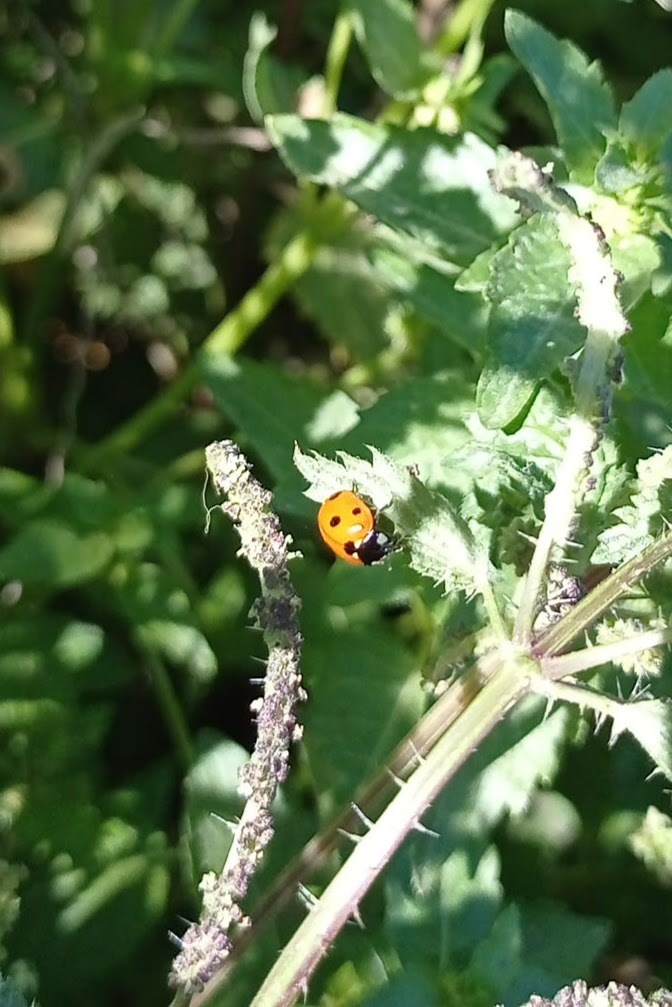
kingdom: Animalia
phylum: Arthropoda
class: Insecta
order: Coleoptera
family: Coccinellidae
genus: Coccinella
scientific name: Coccinella septempunctata
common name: Sevenspotted lady beetle
